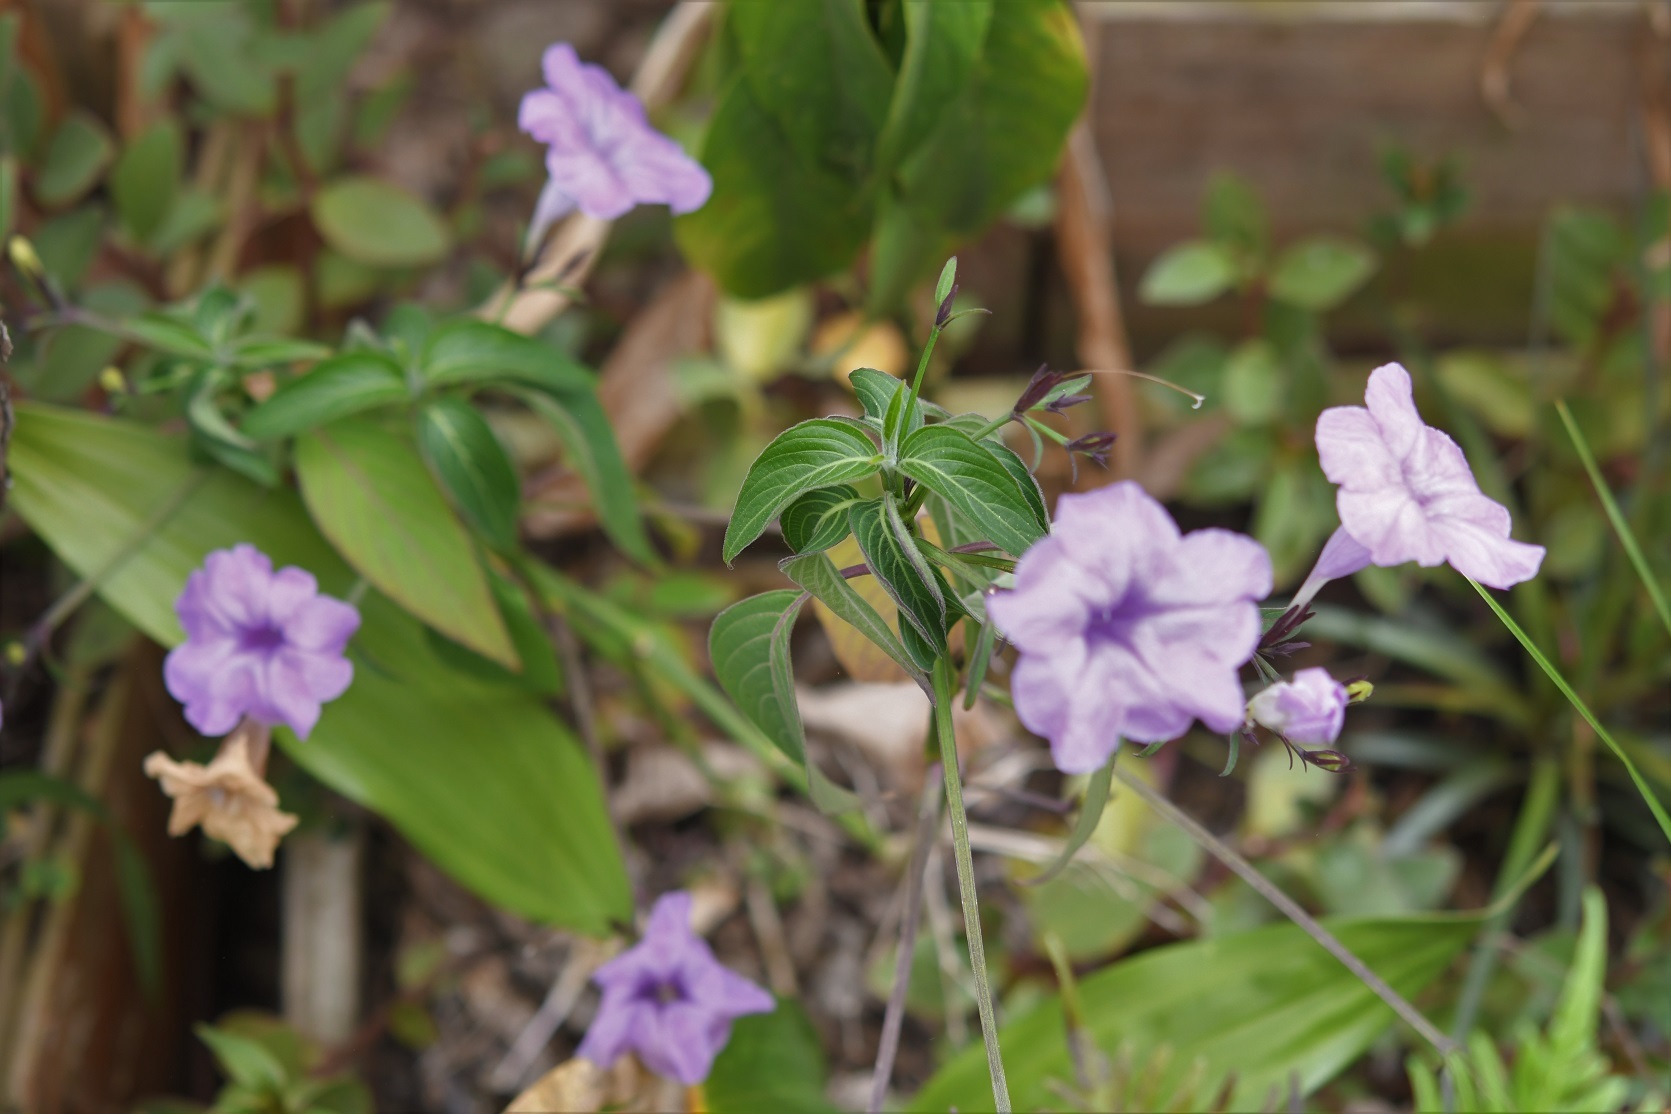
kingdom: Plantae
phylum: Tracheophyta
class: Magnoliopsida
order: Lamiales
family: Acanthaceae
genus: Ruellia
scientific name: Ruellia breedlovei
